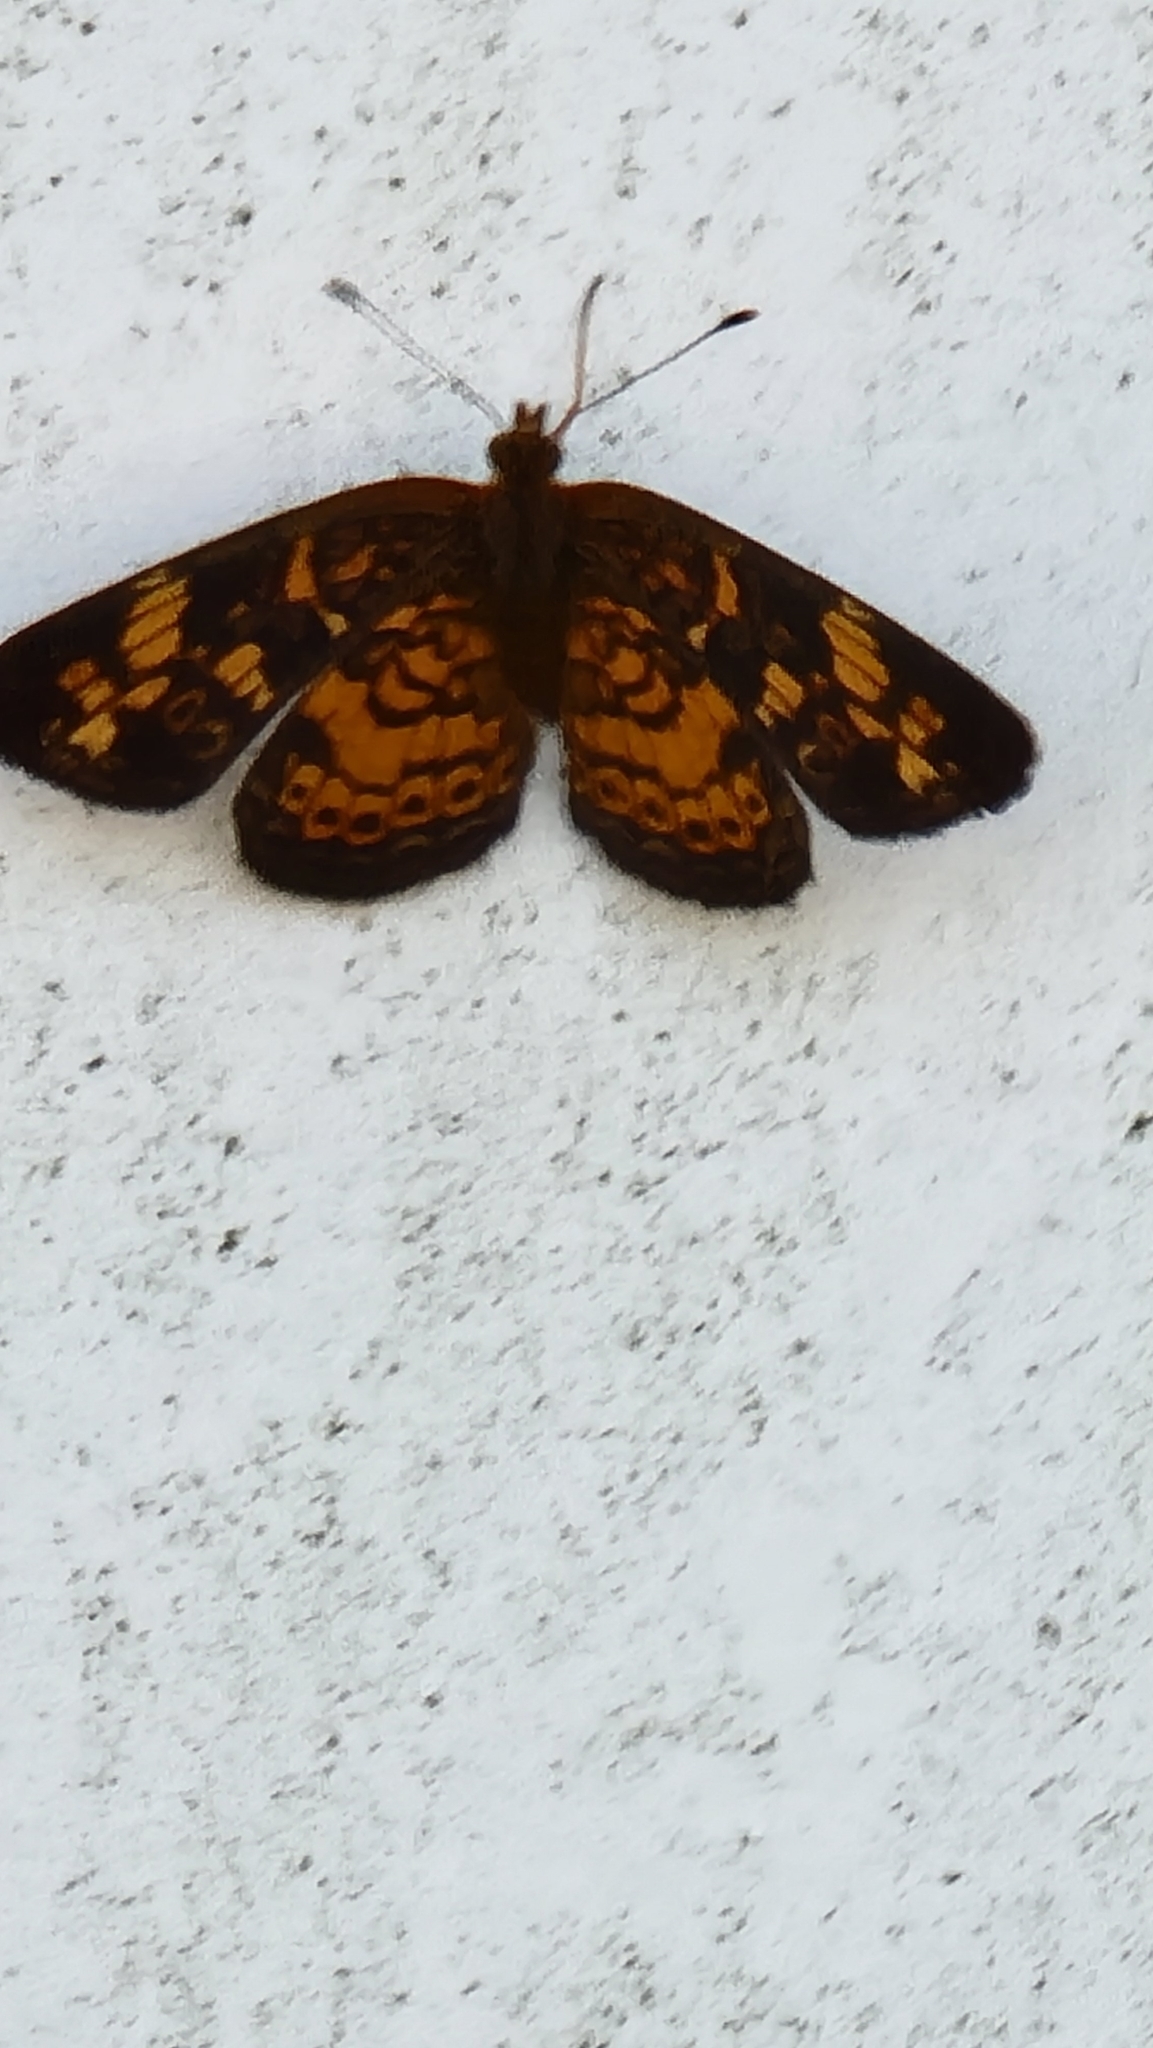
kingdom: Animalia
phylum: Arthropoda
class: Insecta
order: Lepidoptera
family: Nymphalidae
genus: Phyciodes
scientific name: Phyciodes tharos
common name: Pearl crescent
